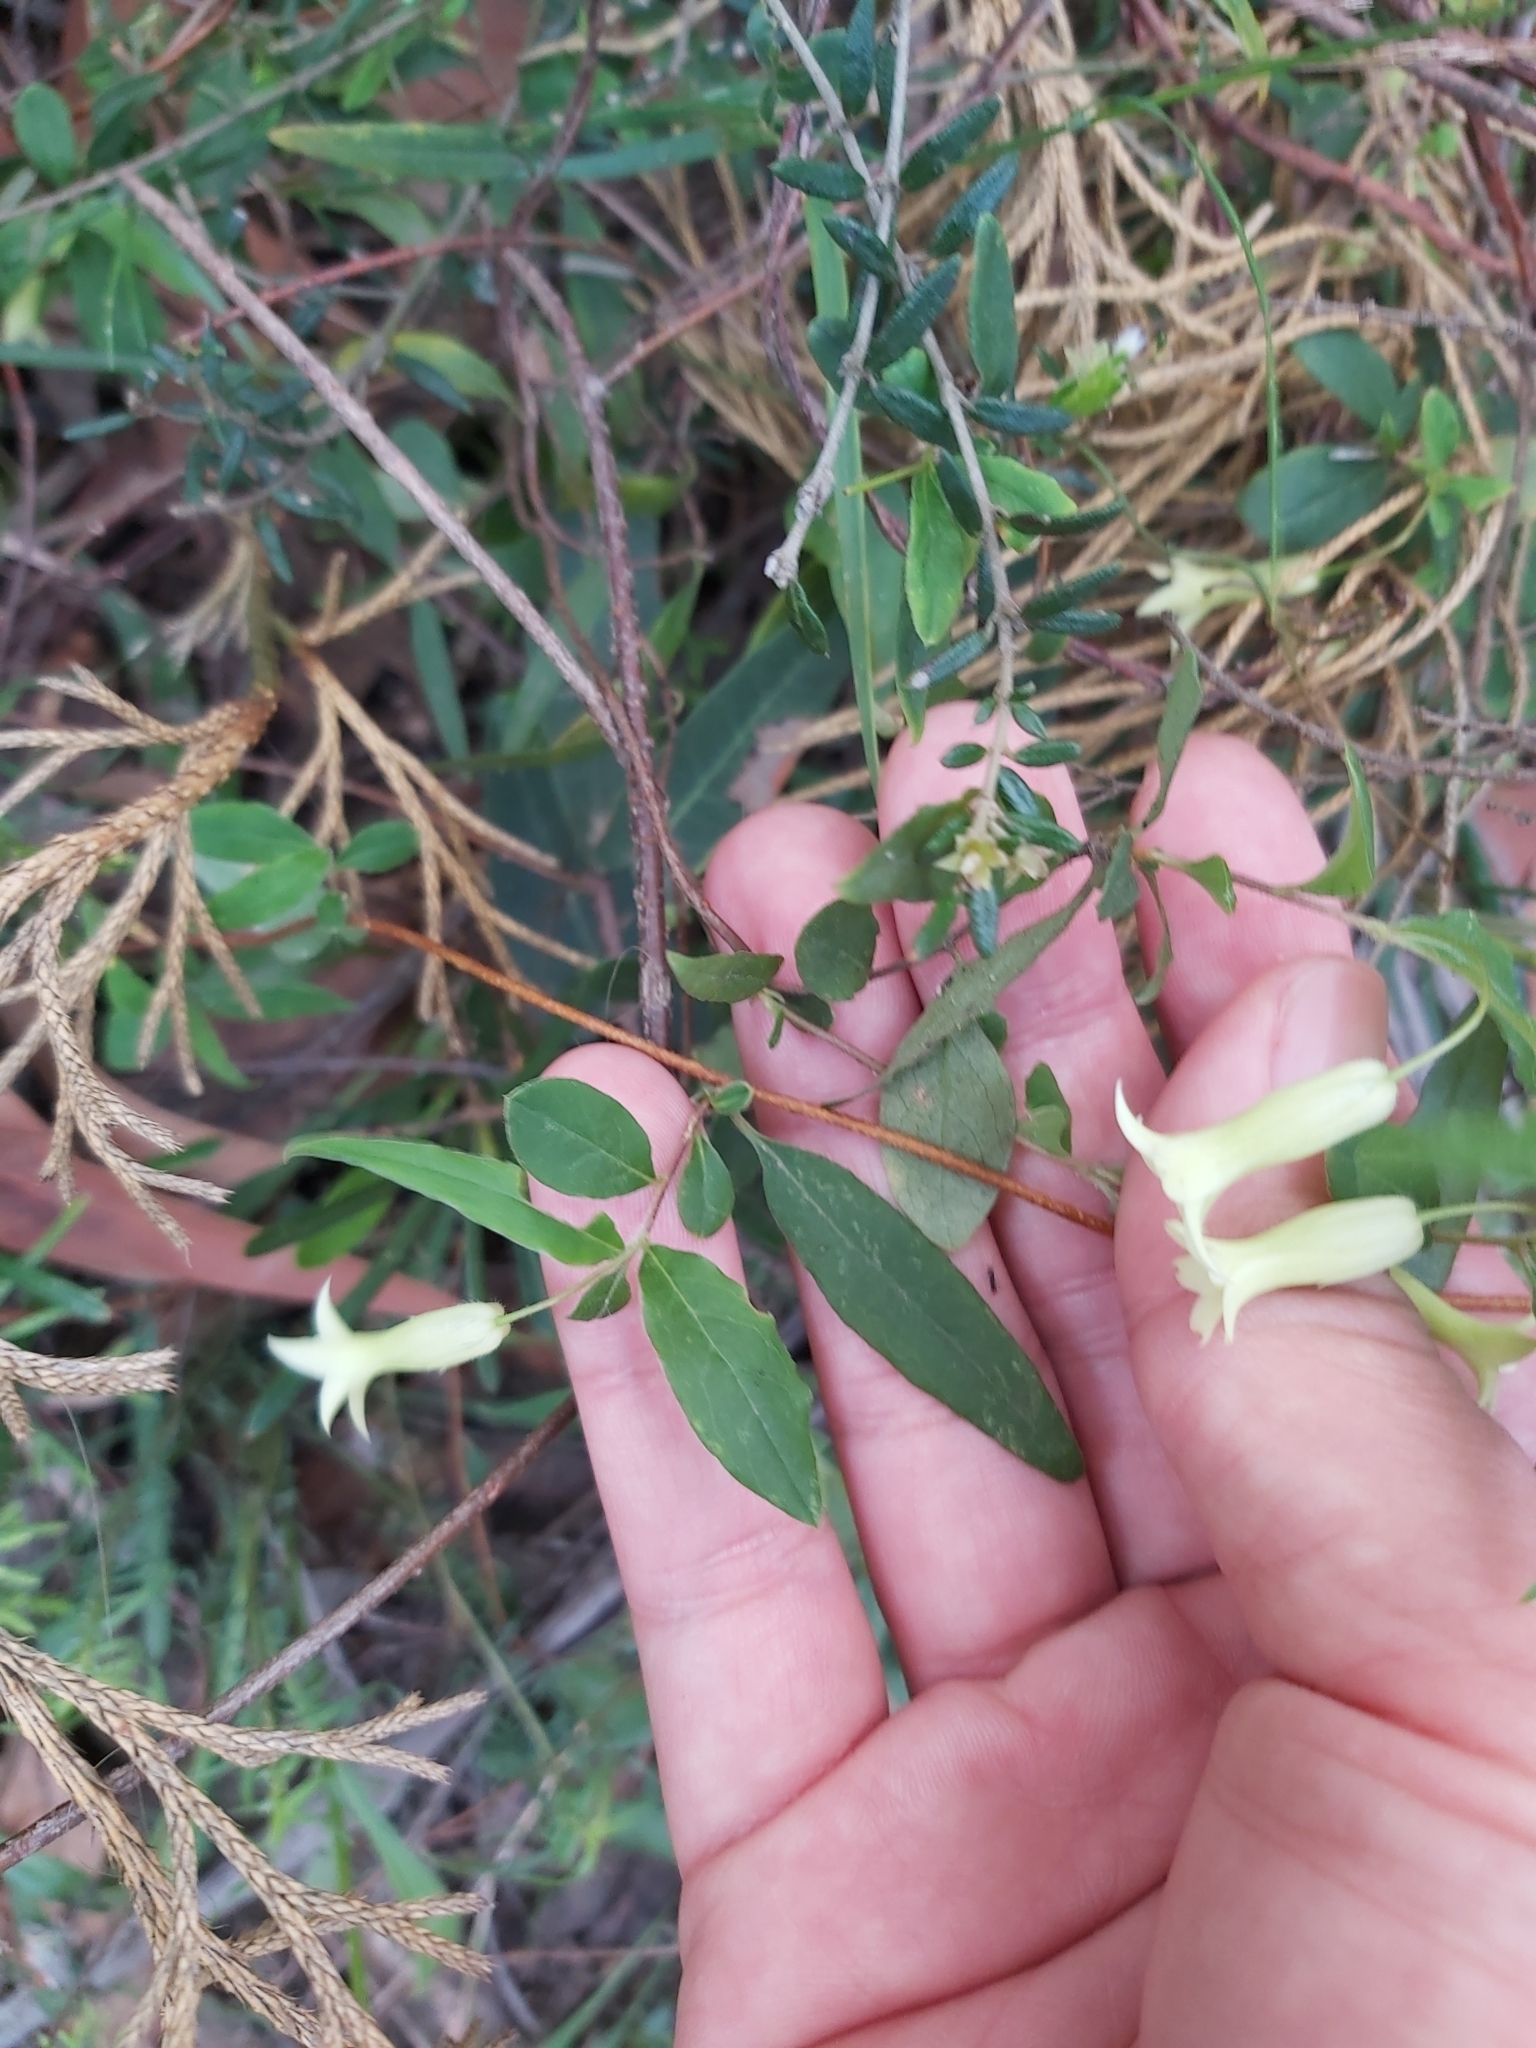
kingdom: Plantae
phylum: Tracheophyta
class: Magnoliopsida
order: Apiales
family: Pittosporaceae
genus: Billardiera
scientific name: Billardiera scandens
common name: Apple-berry
